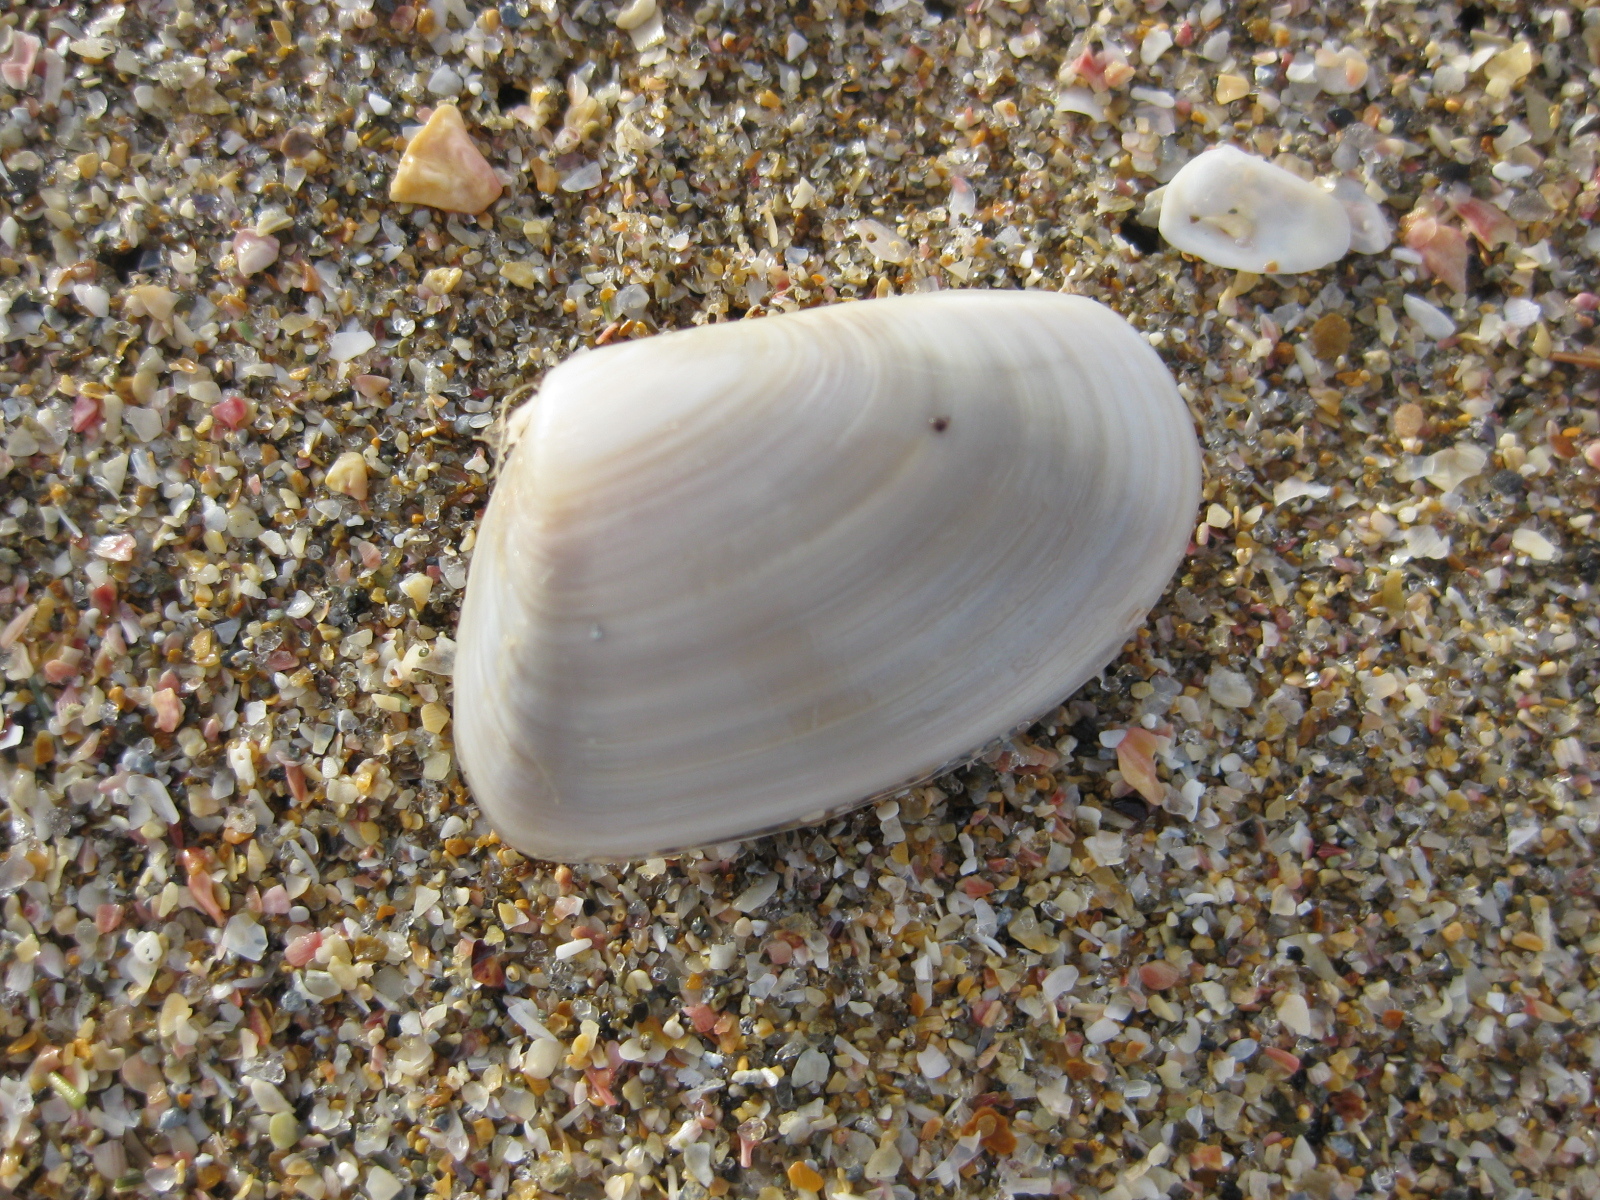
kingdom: Animalia
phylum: Mollusca
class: Bivalvia
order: Venerida
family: Mesodesmatidae
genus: Paphies
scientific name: Paphies subtriangulata
